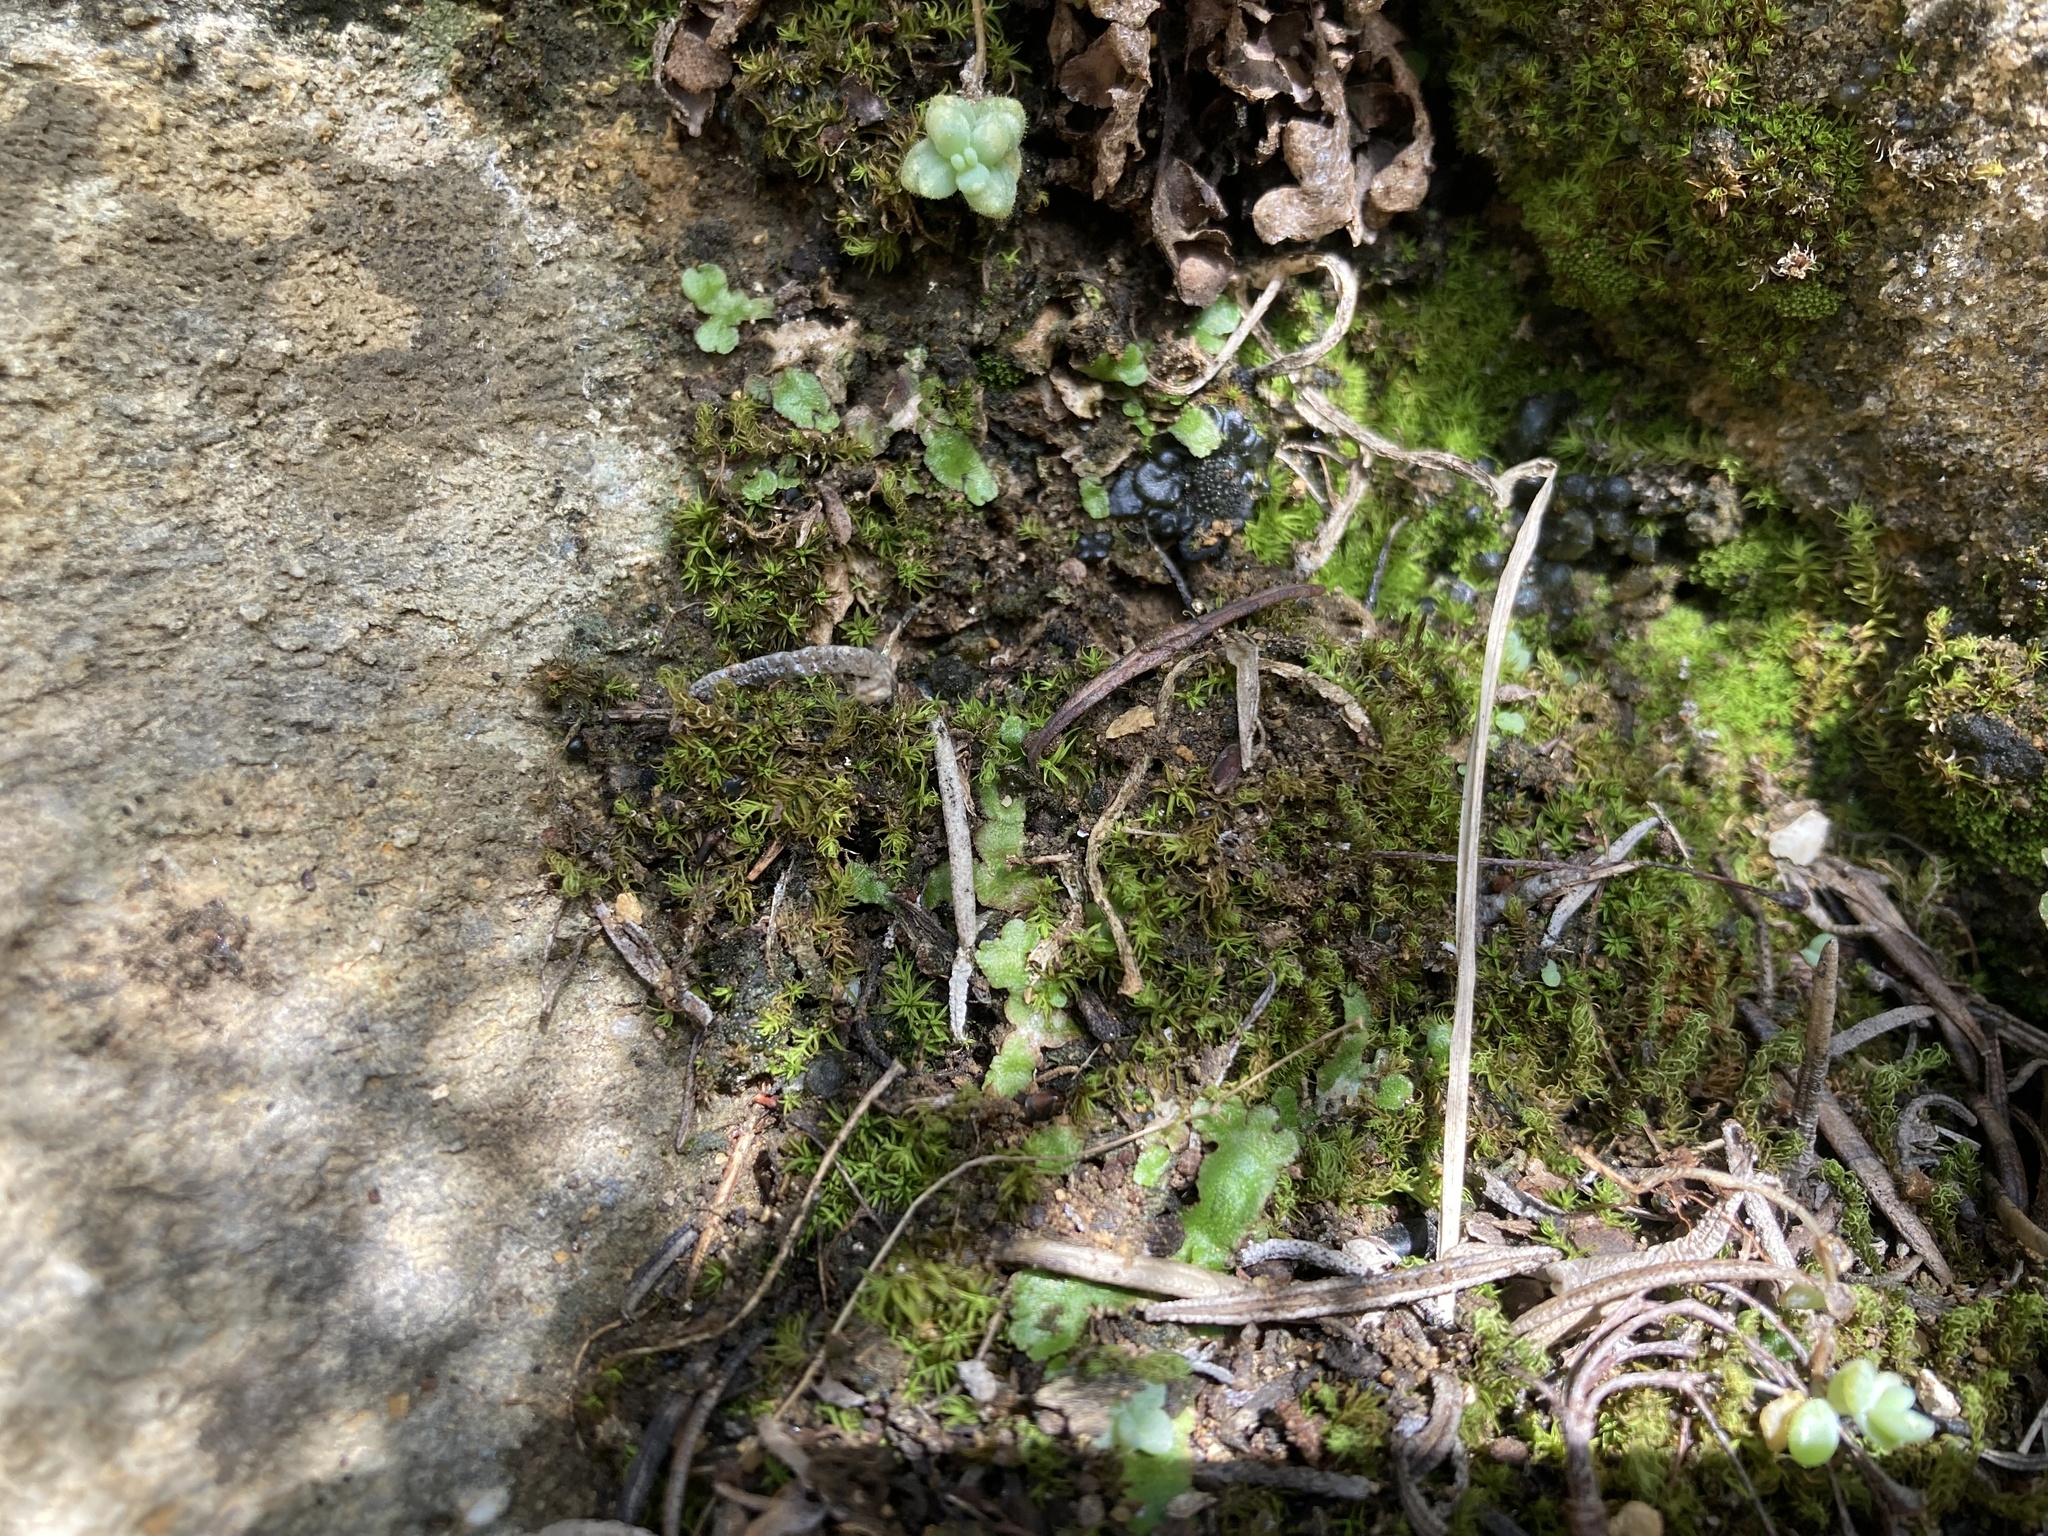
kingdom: Plantae
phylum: Marchantiophyta
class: Marchantiopsida
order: Marchantiales
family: Aytoniaceae
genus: Reboulia
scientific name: Reboulia hemisphaerica
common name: Purple-margined liverwort
